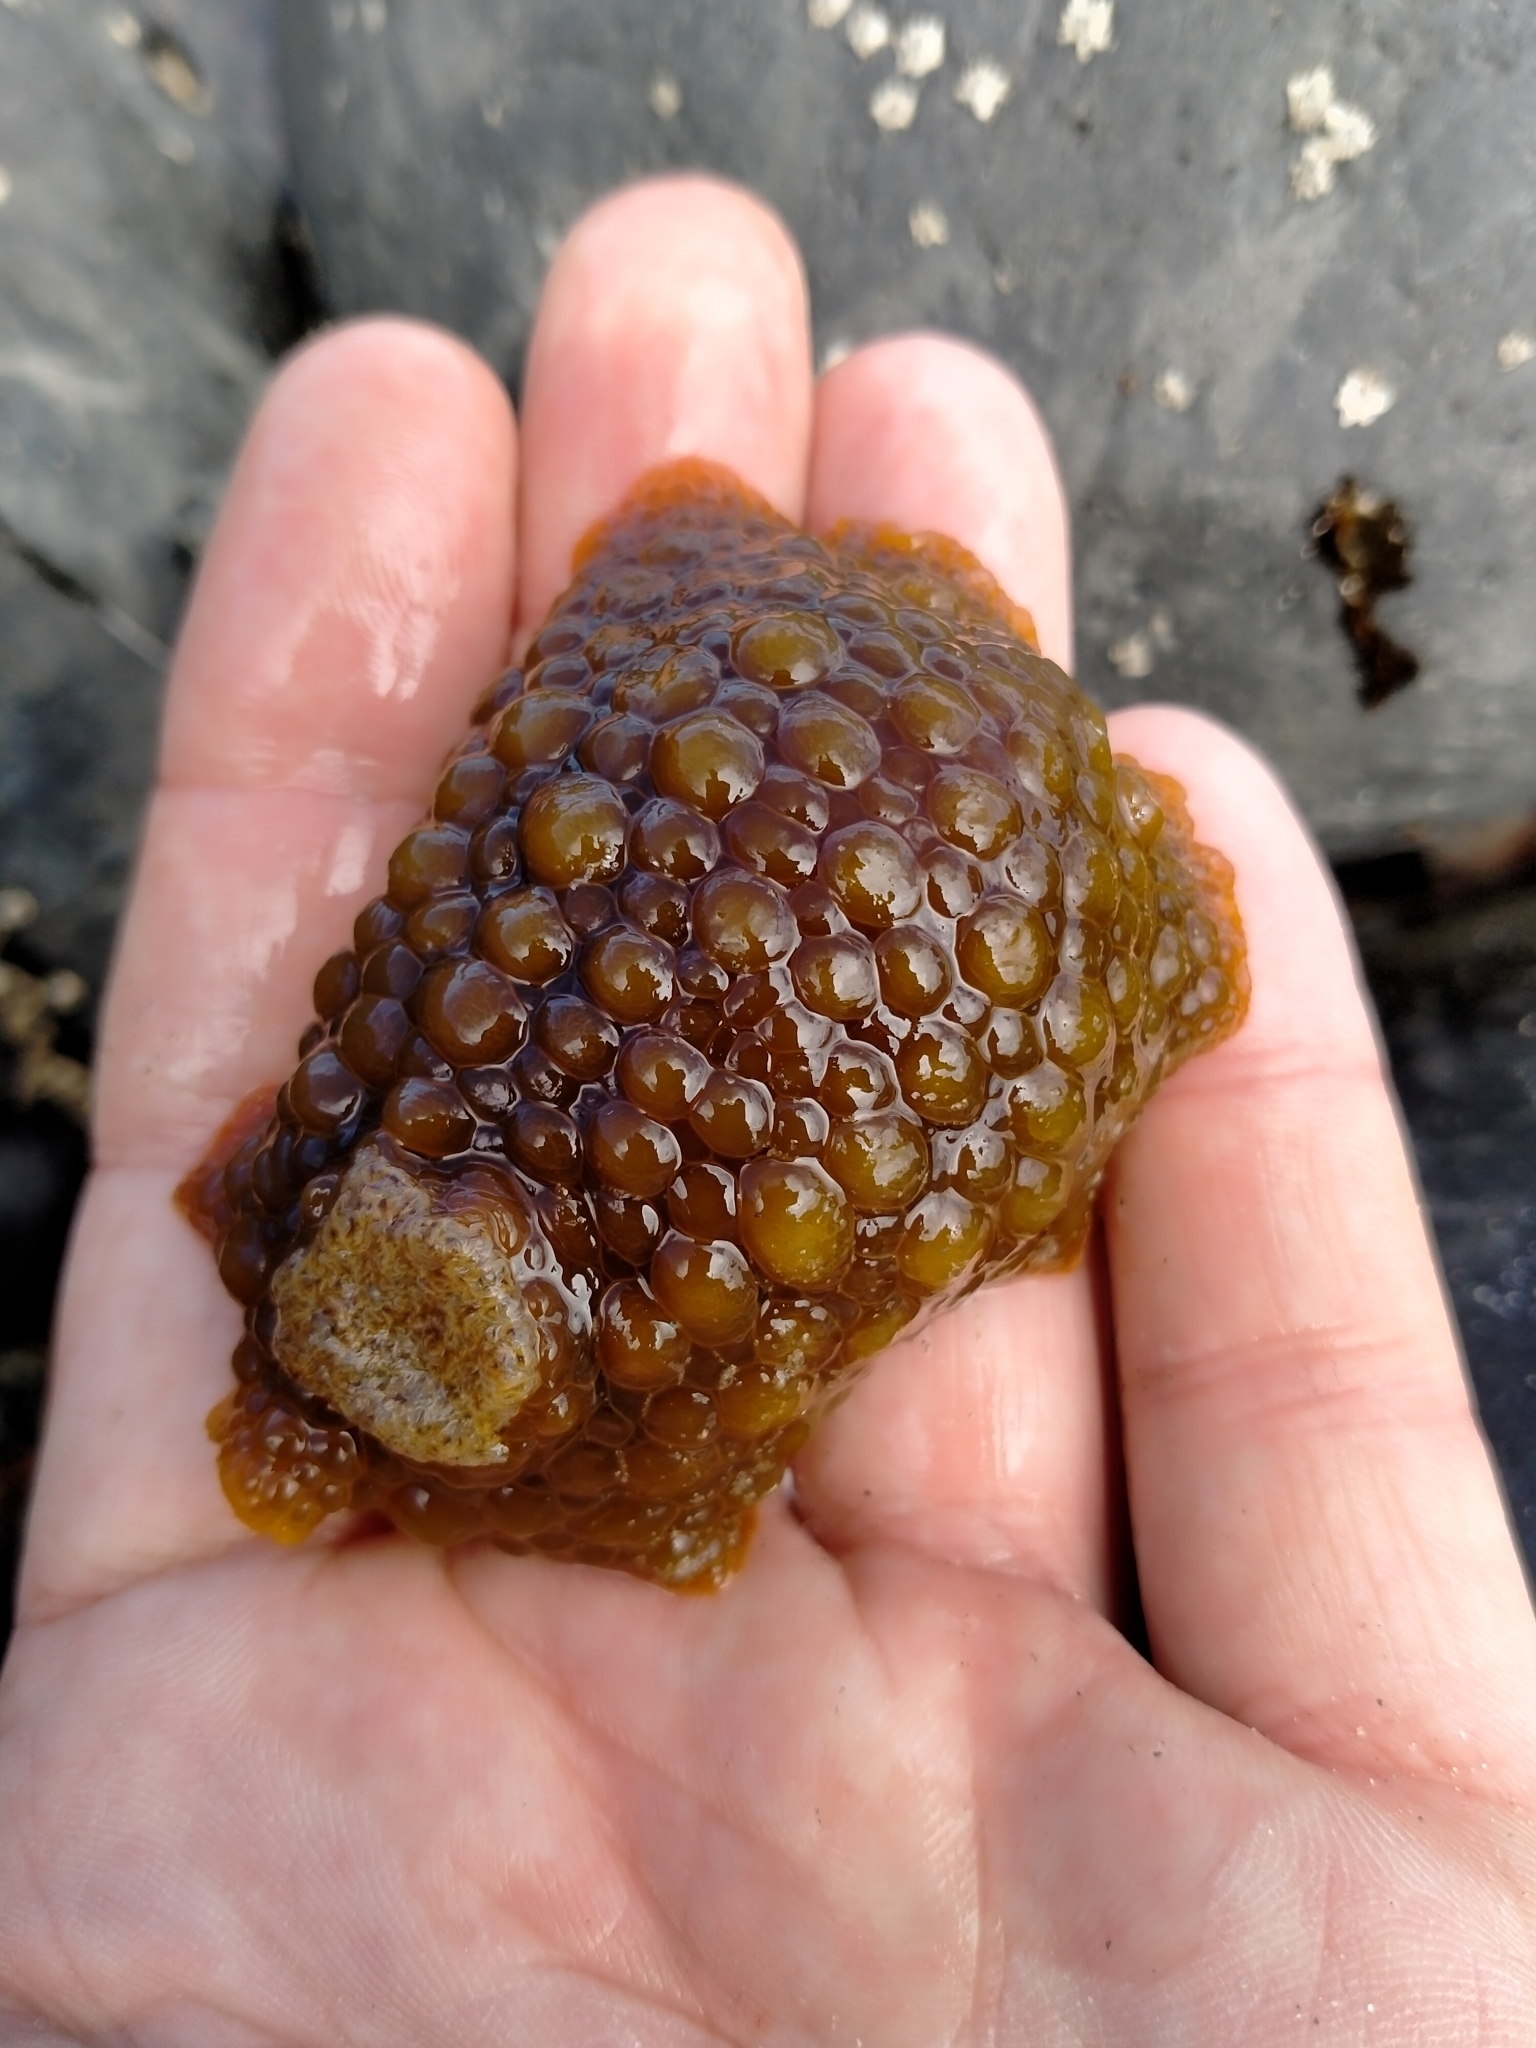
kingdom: Animalia
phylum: Mollusca
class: Gastropoda
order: Nudibranchia
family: Dorididae
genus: Doris
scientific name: Doris wellingtonensis
